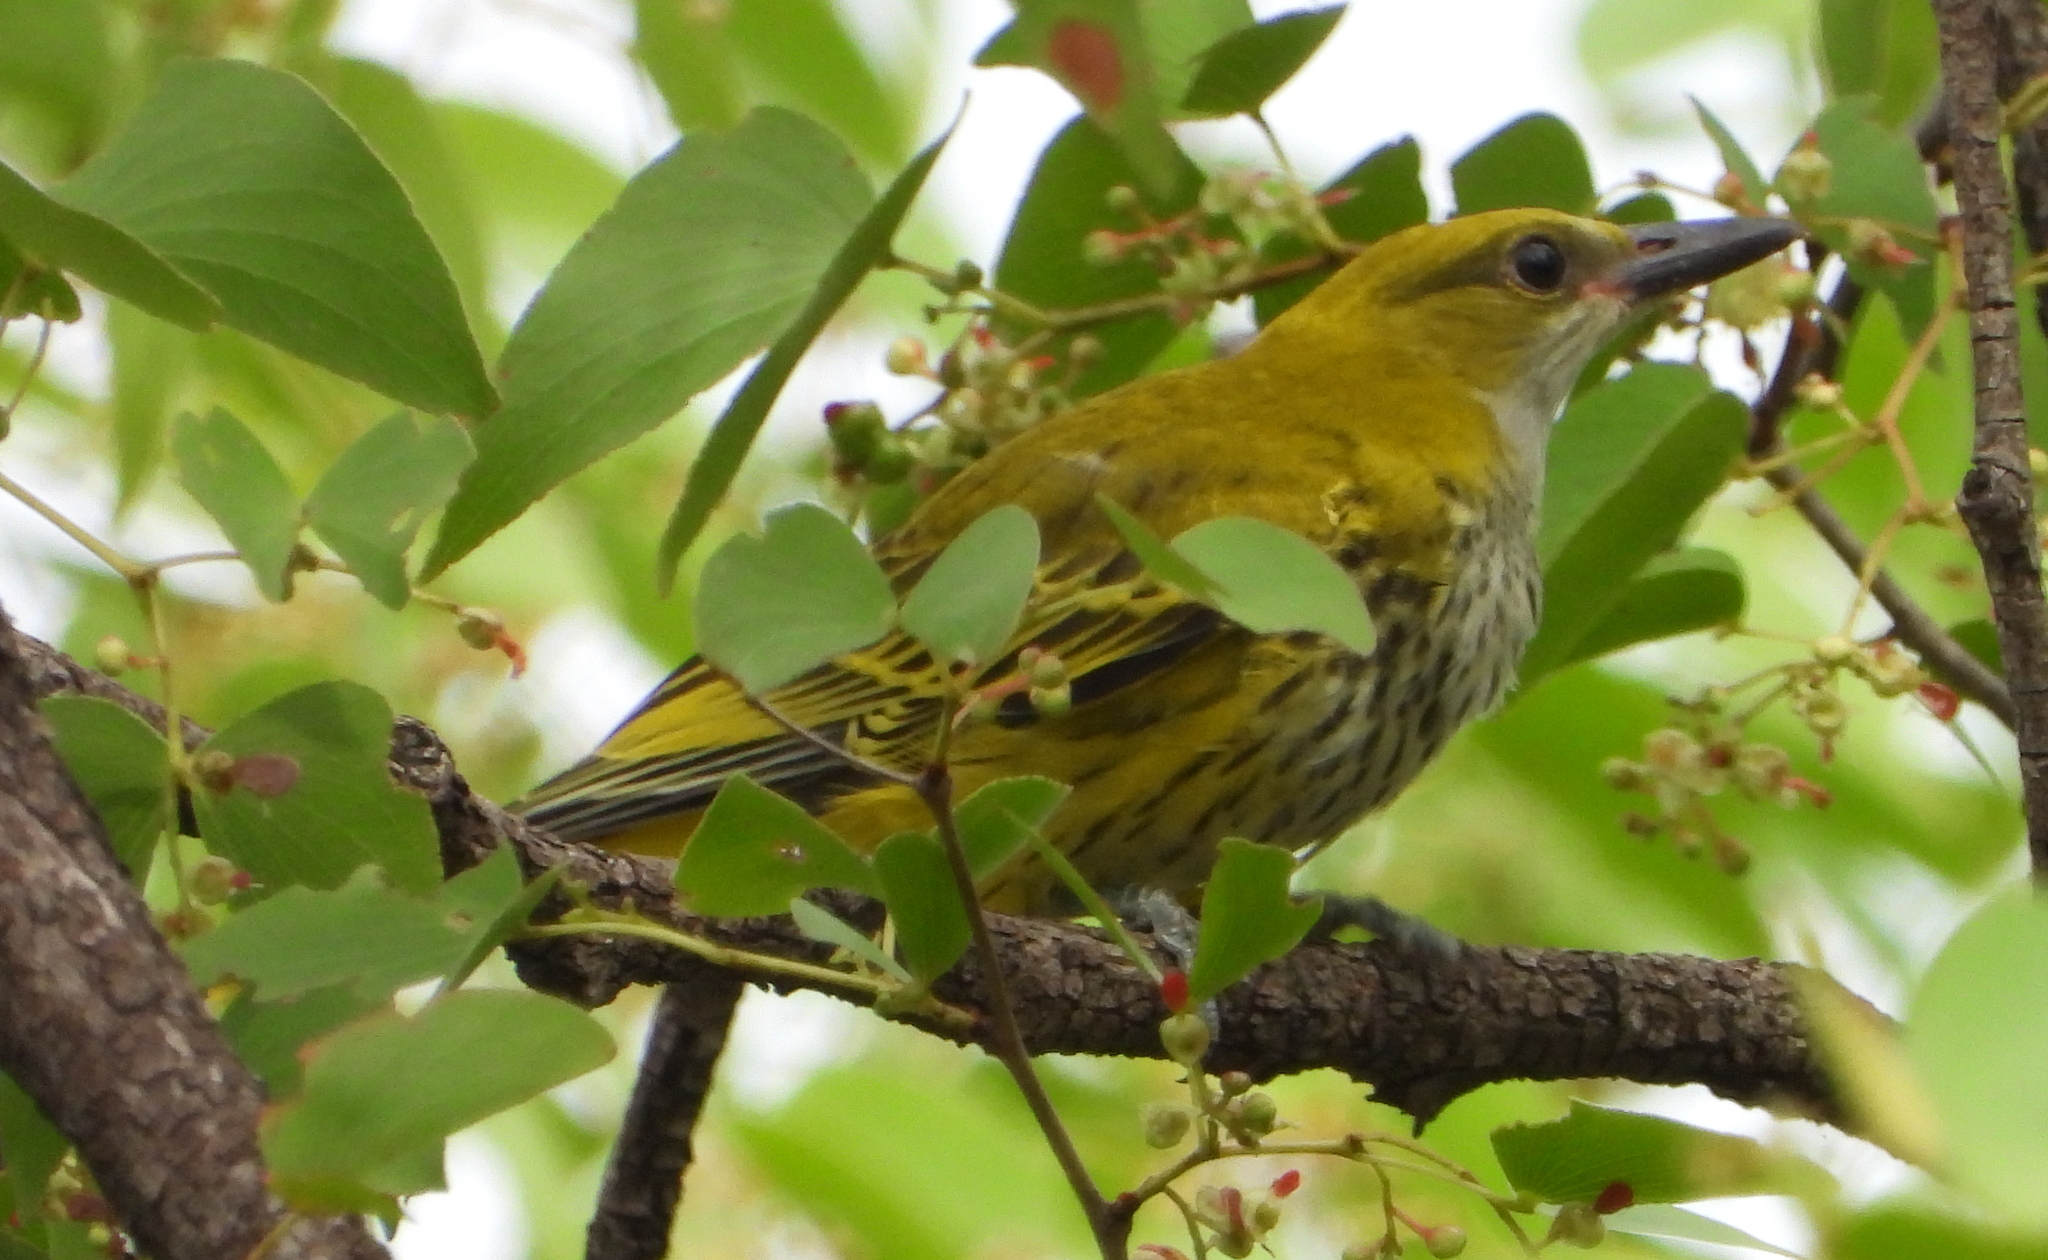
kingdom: Animalia
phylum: Chordata
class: Aves
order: Passeriformes
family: Oriolidae
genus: Oriolus
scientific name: Oriolus auratus
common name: African golden oriole
